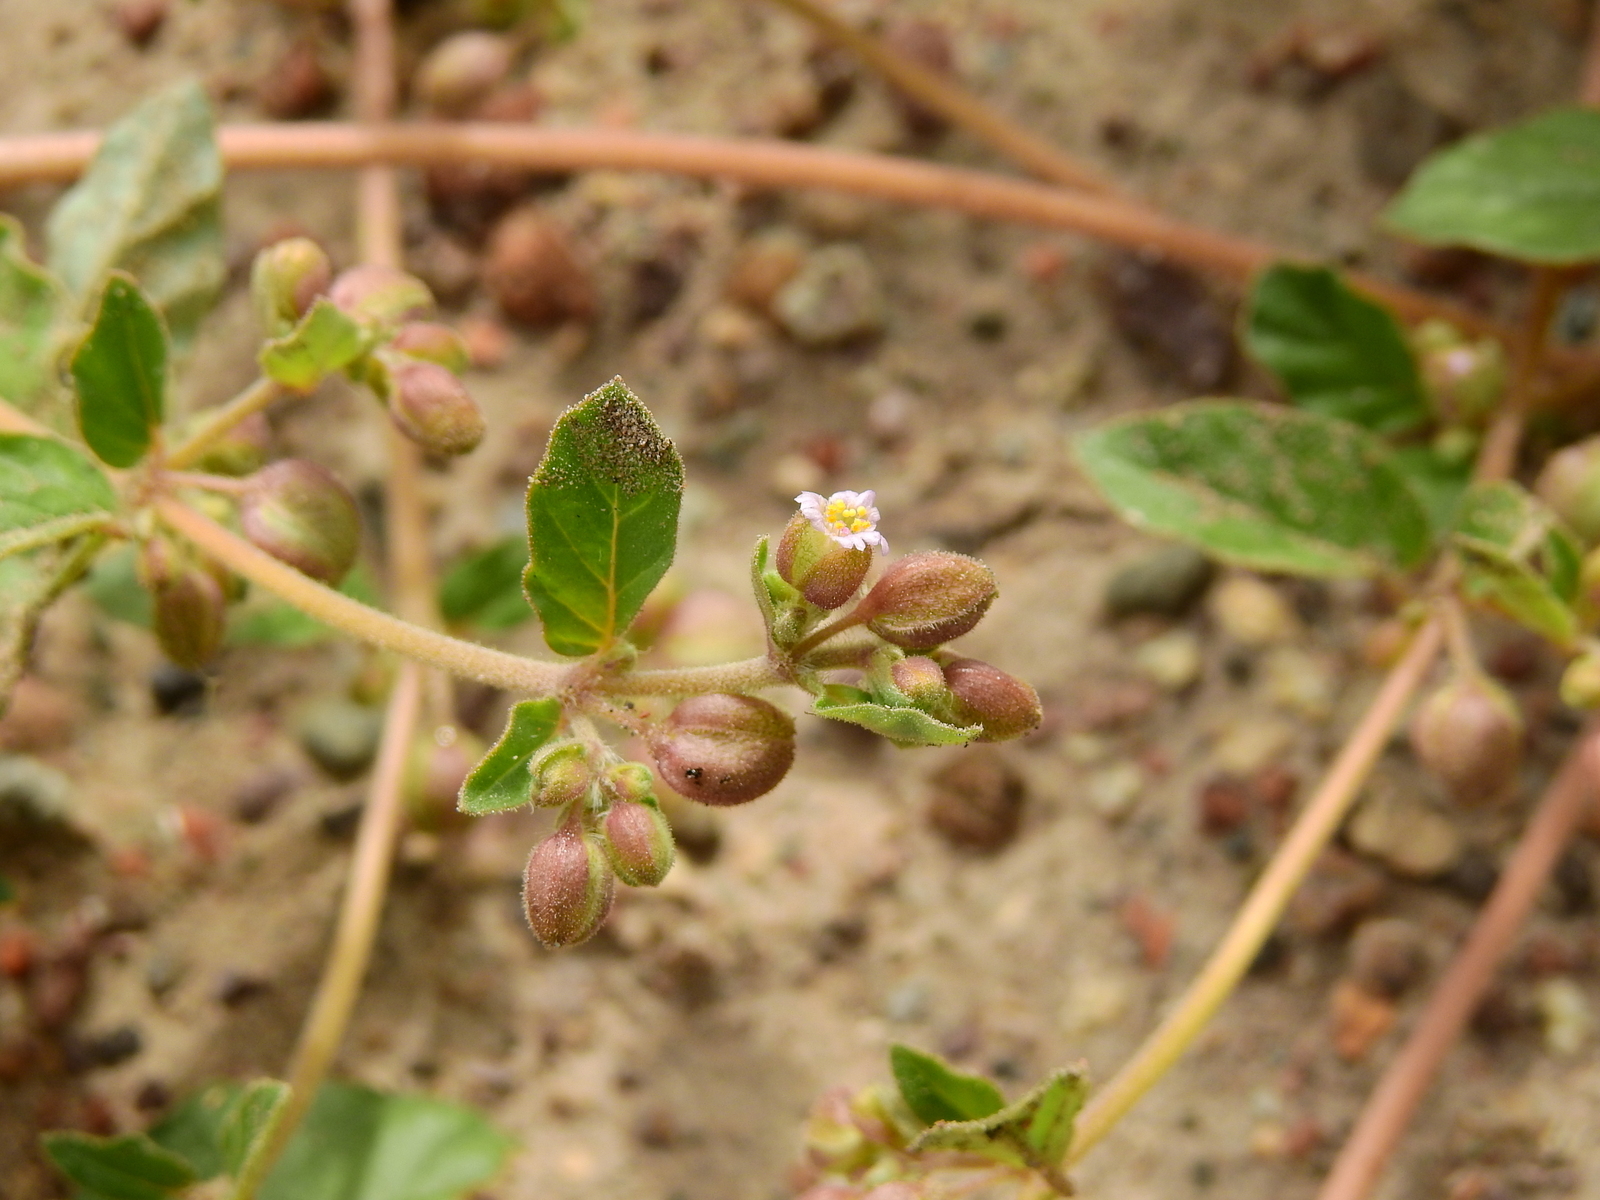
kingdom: Plantae
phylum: Tracheophyta
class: Magnoliopsida
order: Caryophyllales
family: Nyctaginaceae
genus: Allionia
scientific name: Allionia choisyi
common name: Trailing-four-o'clock
